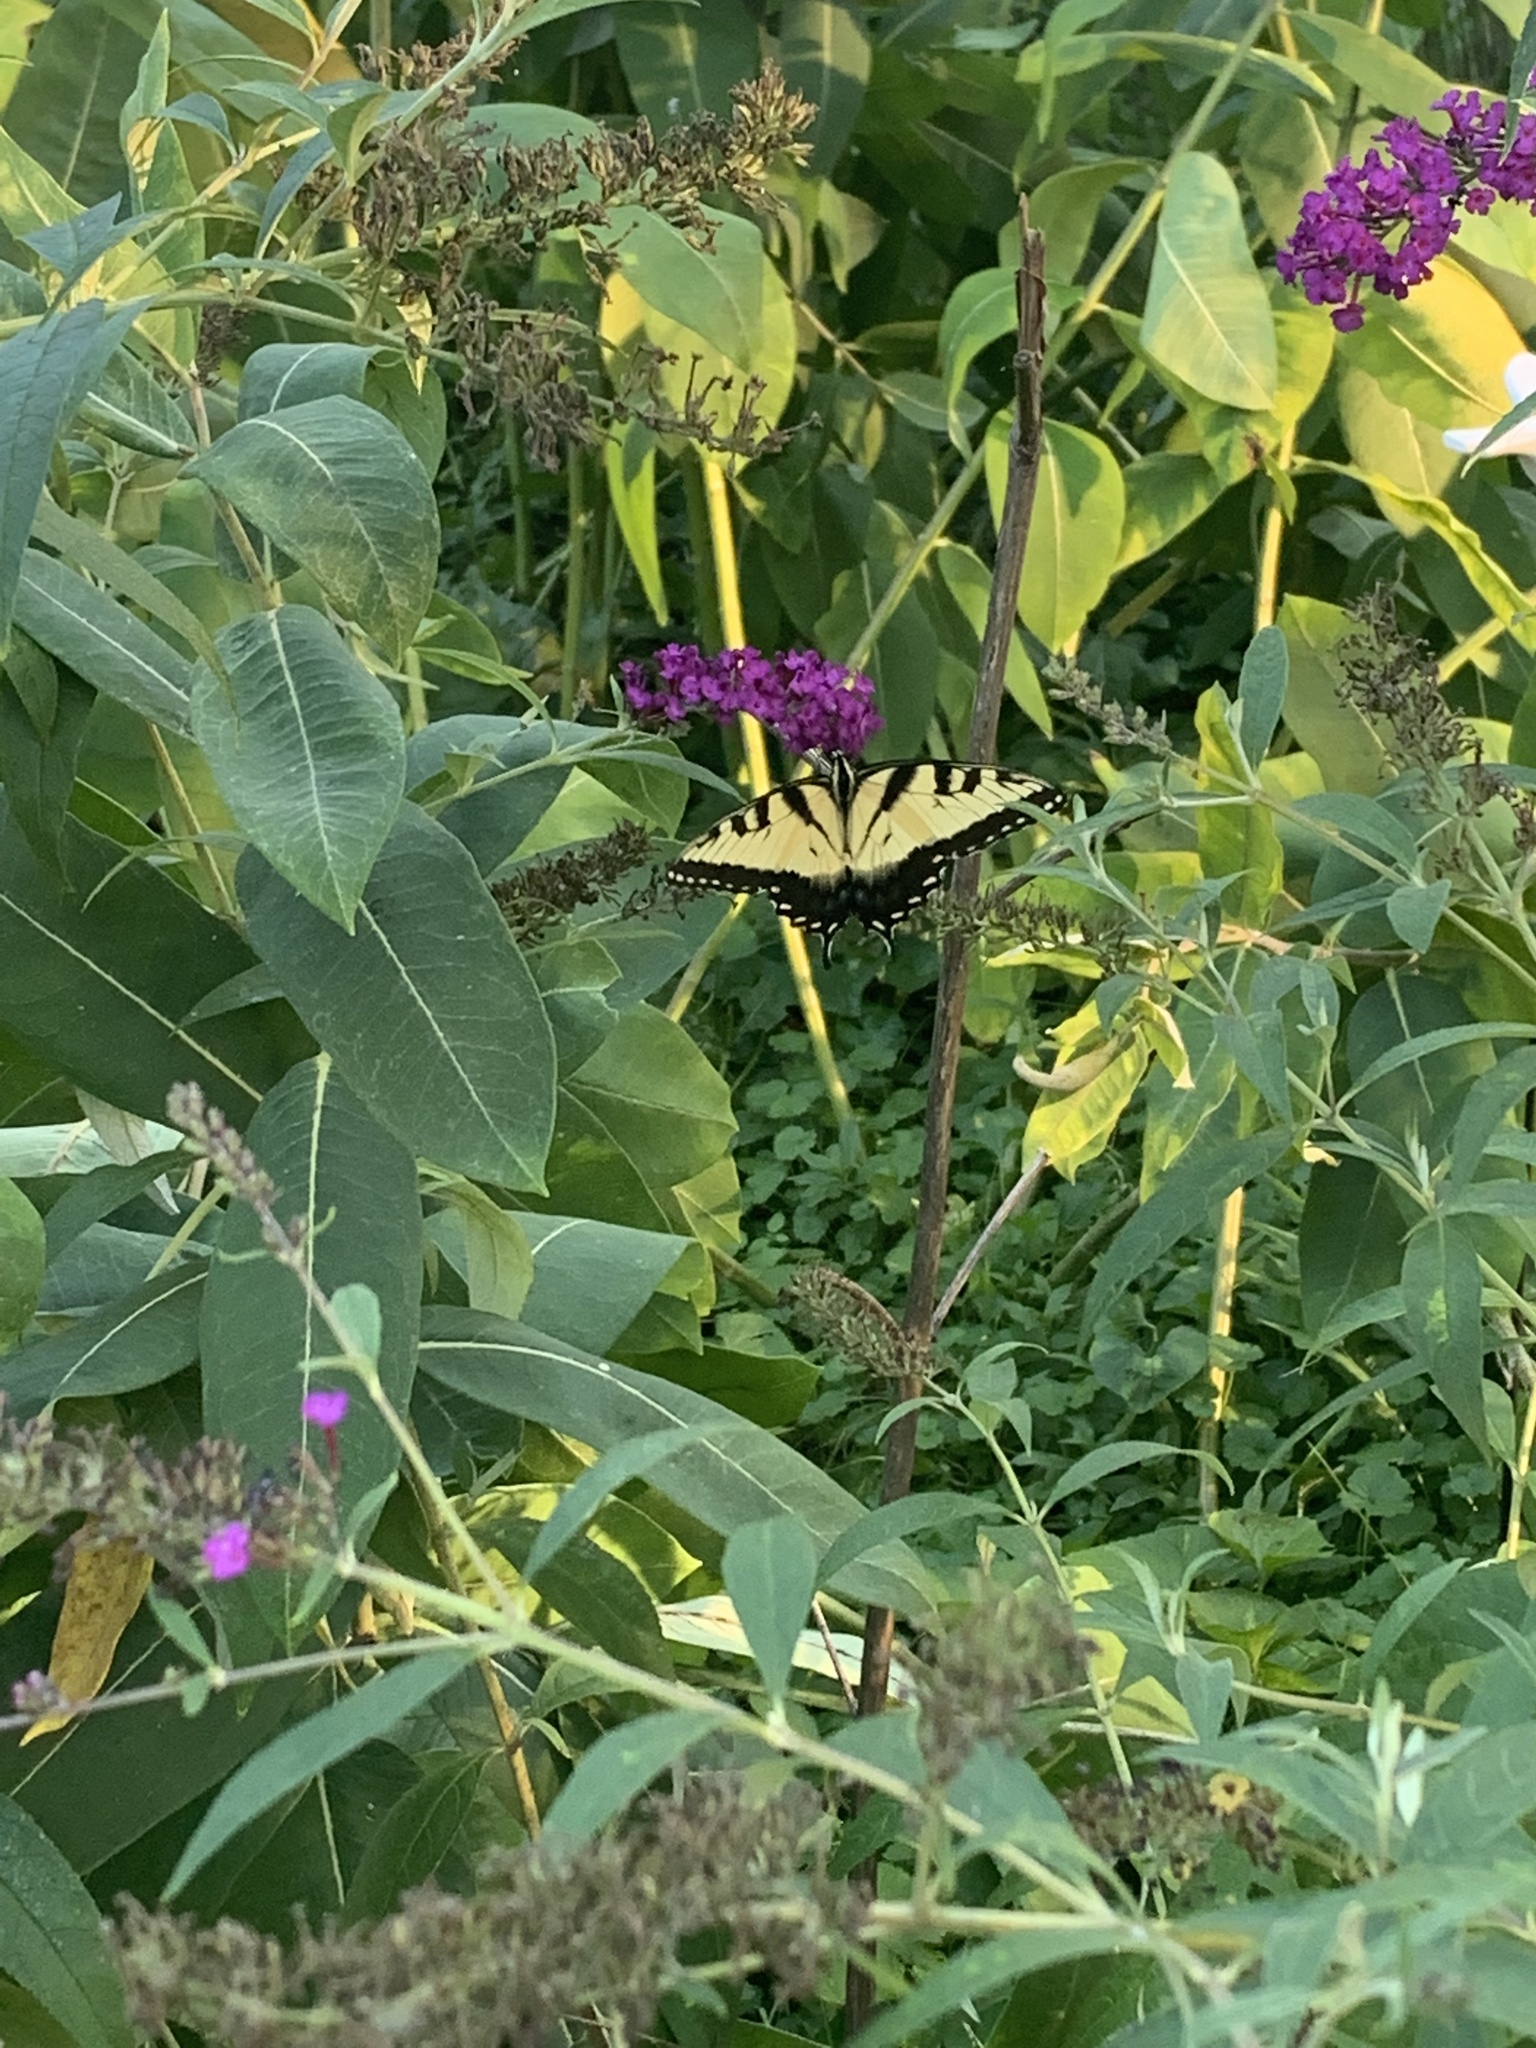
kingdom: Animalia
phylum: Arthropoda
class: Insecta
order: Lepidoptera
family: Papilionidae
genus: Papilio
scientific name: Papilio glaucus
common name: Tiger swallowtail
